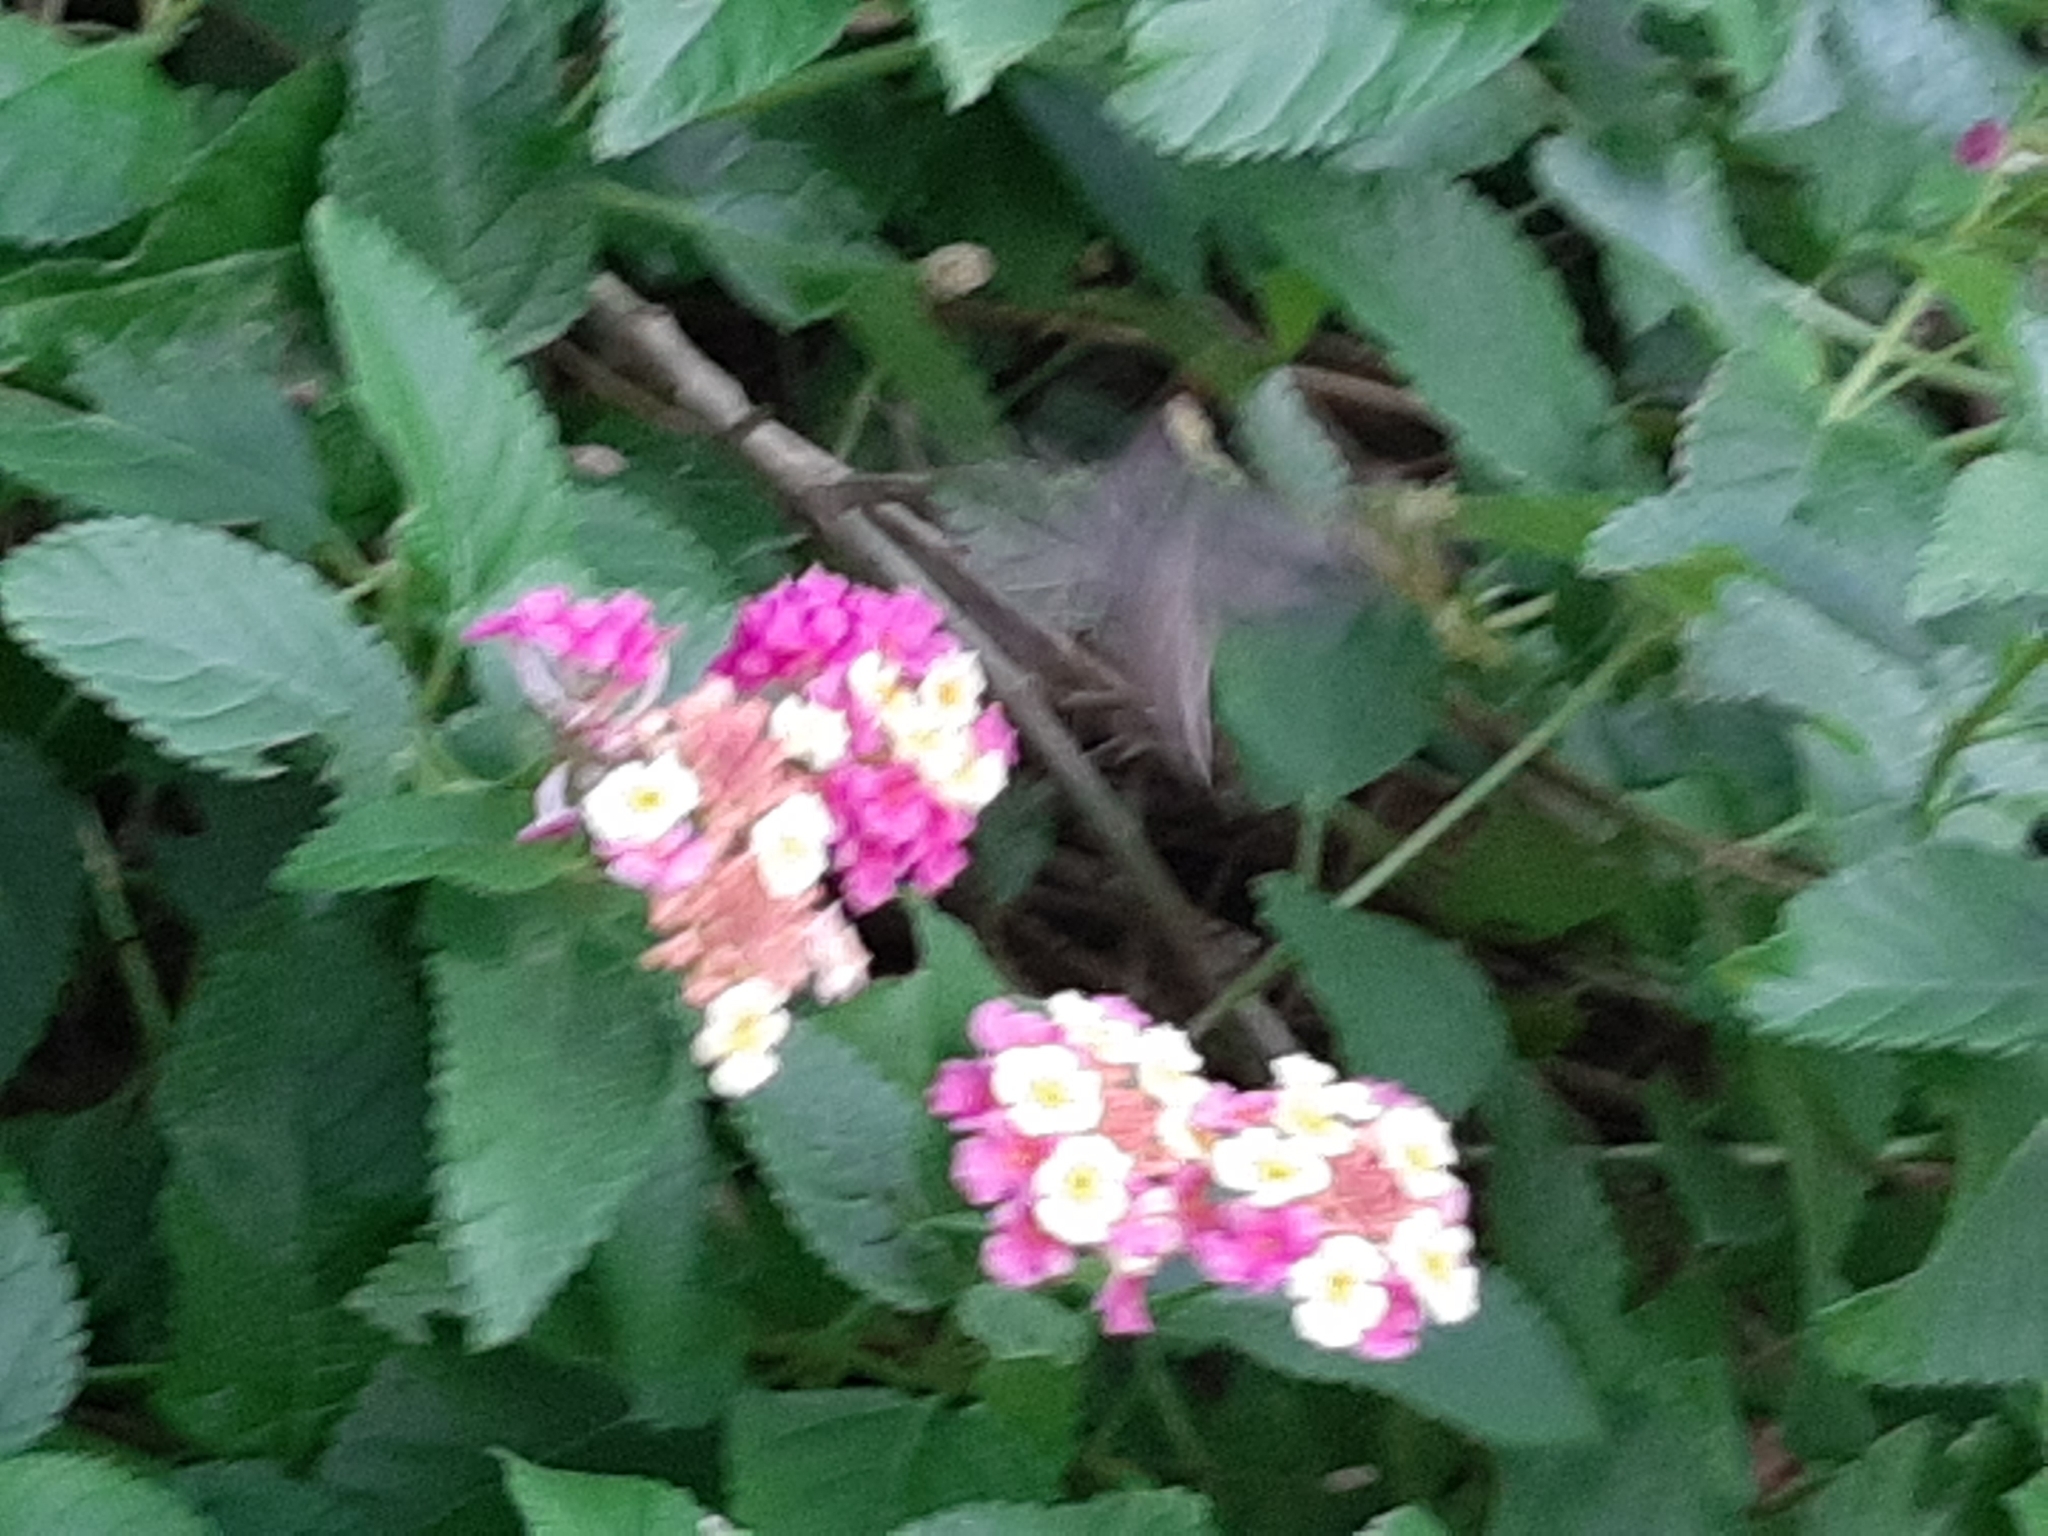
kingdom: Animalia
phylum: Arthropoda
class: Insecta
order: Lepidoptera
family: Sphingidae
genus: Enyo
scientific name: Enyo lugubris
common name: Mournful sphinx
